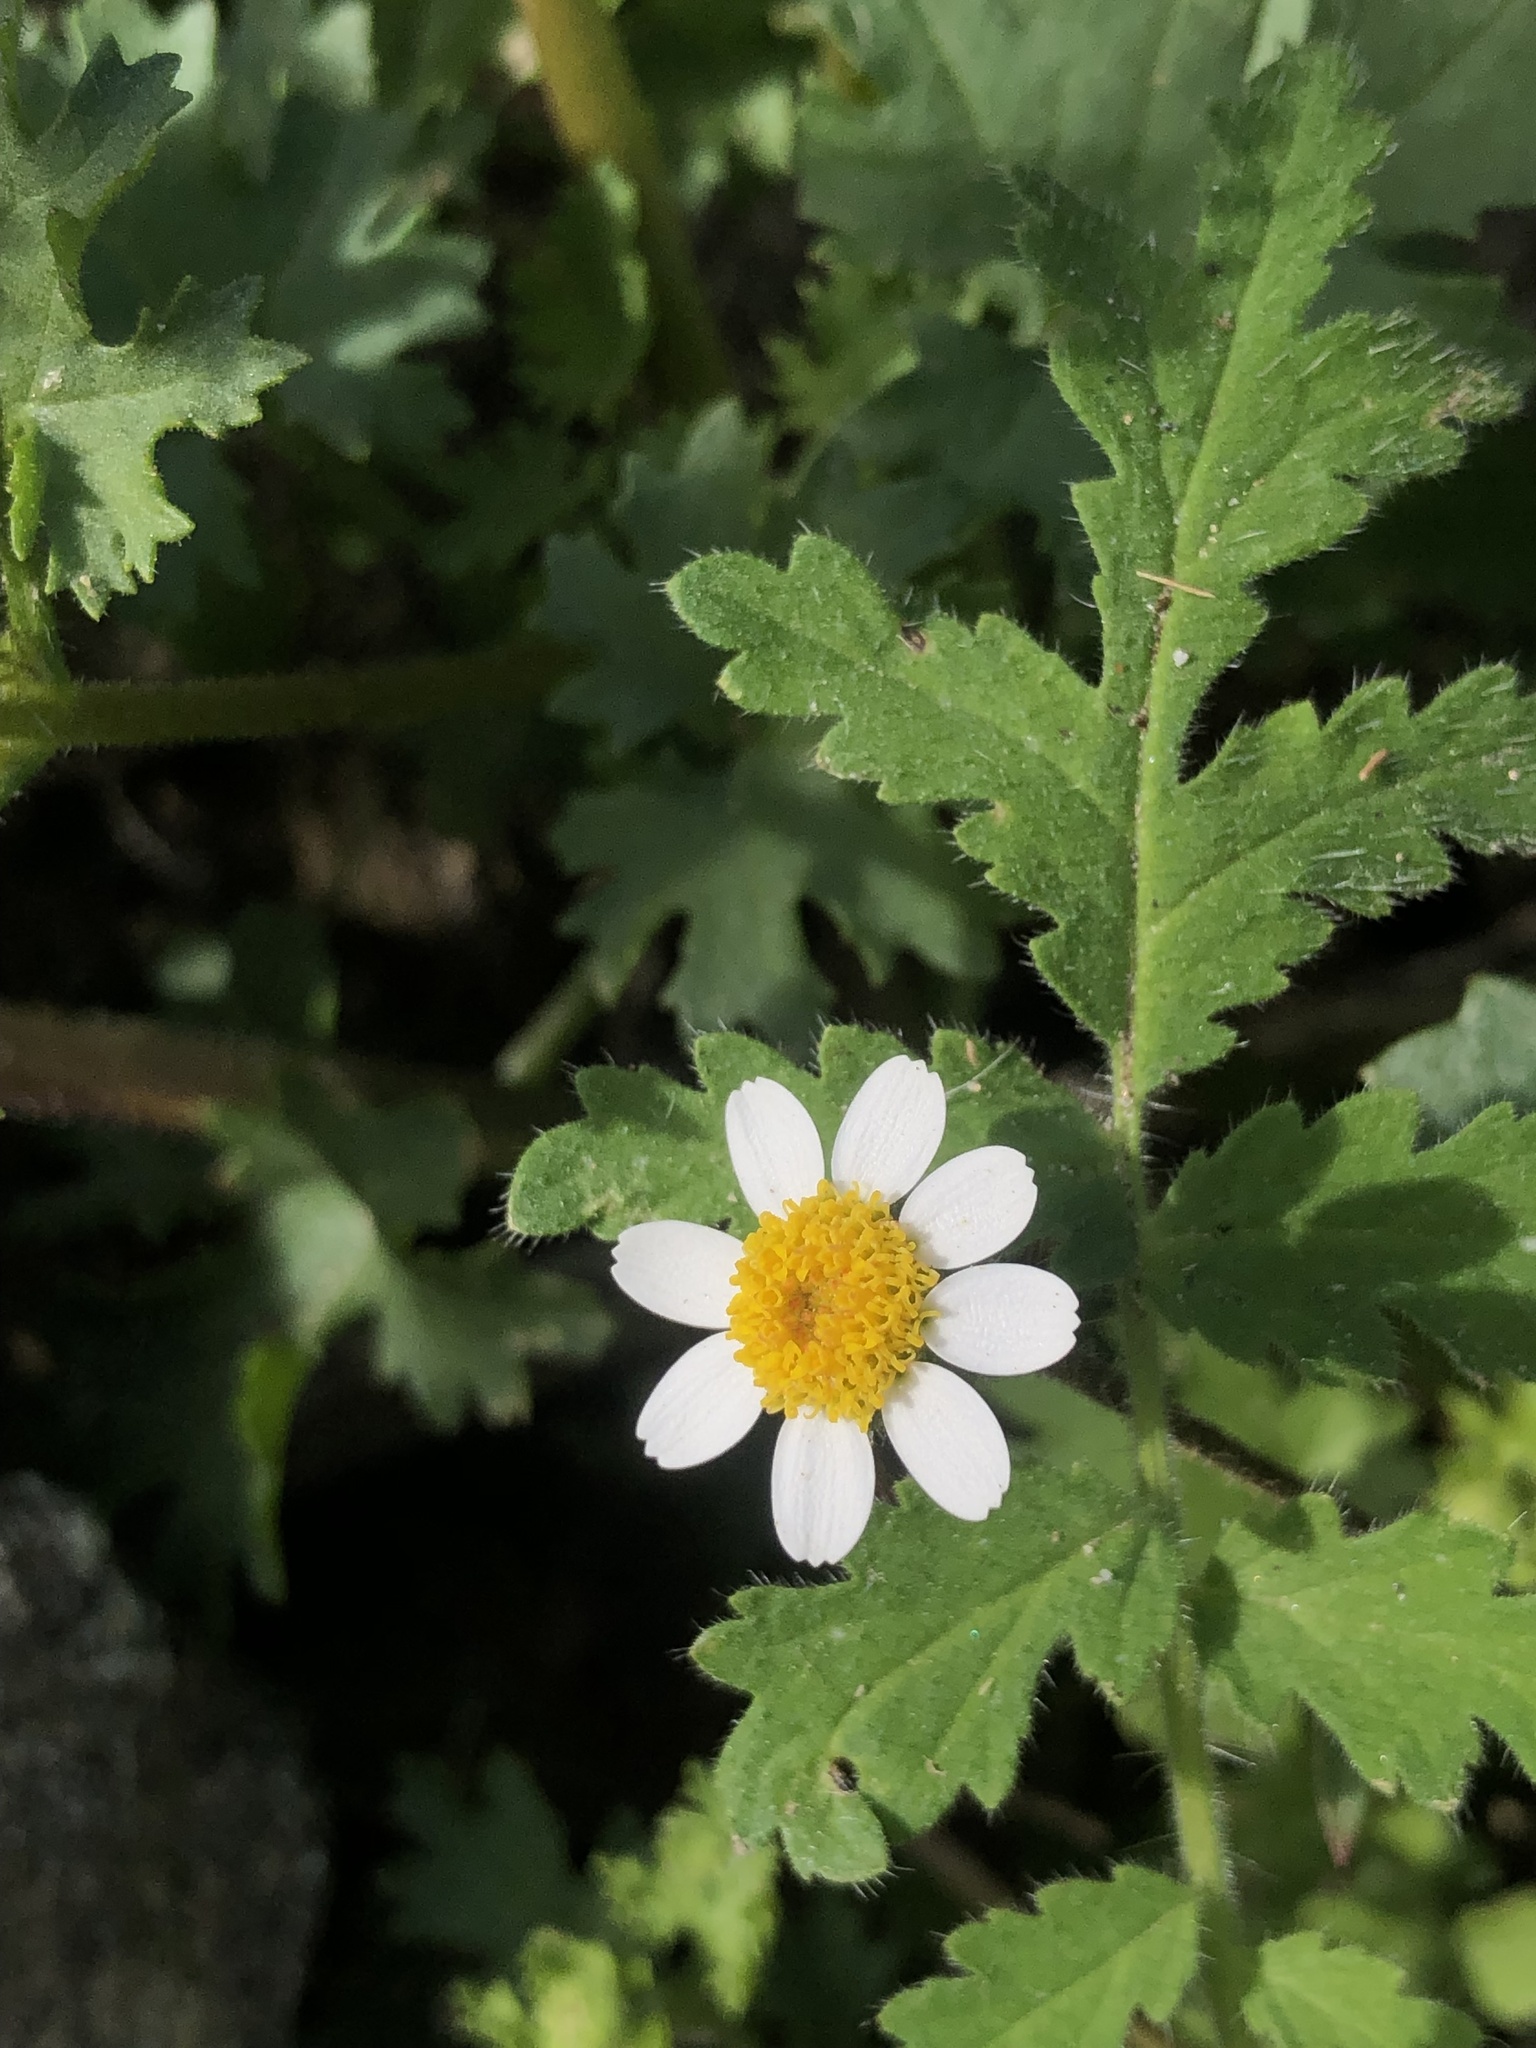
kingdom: Plantae
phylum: Tracheophyta
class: Magnoliopsida
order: Asterales
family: Asteraceae
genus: Laphamia
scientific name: Laphamia emoryi
